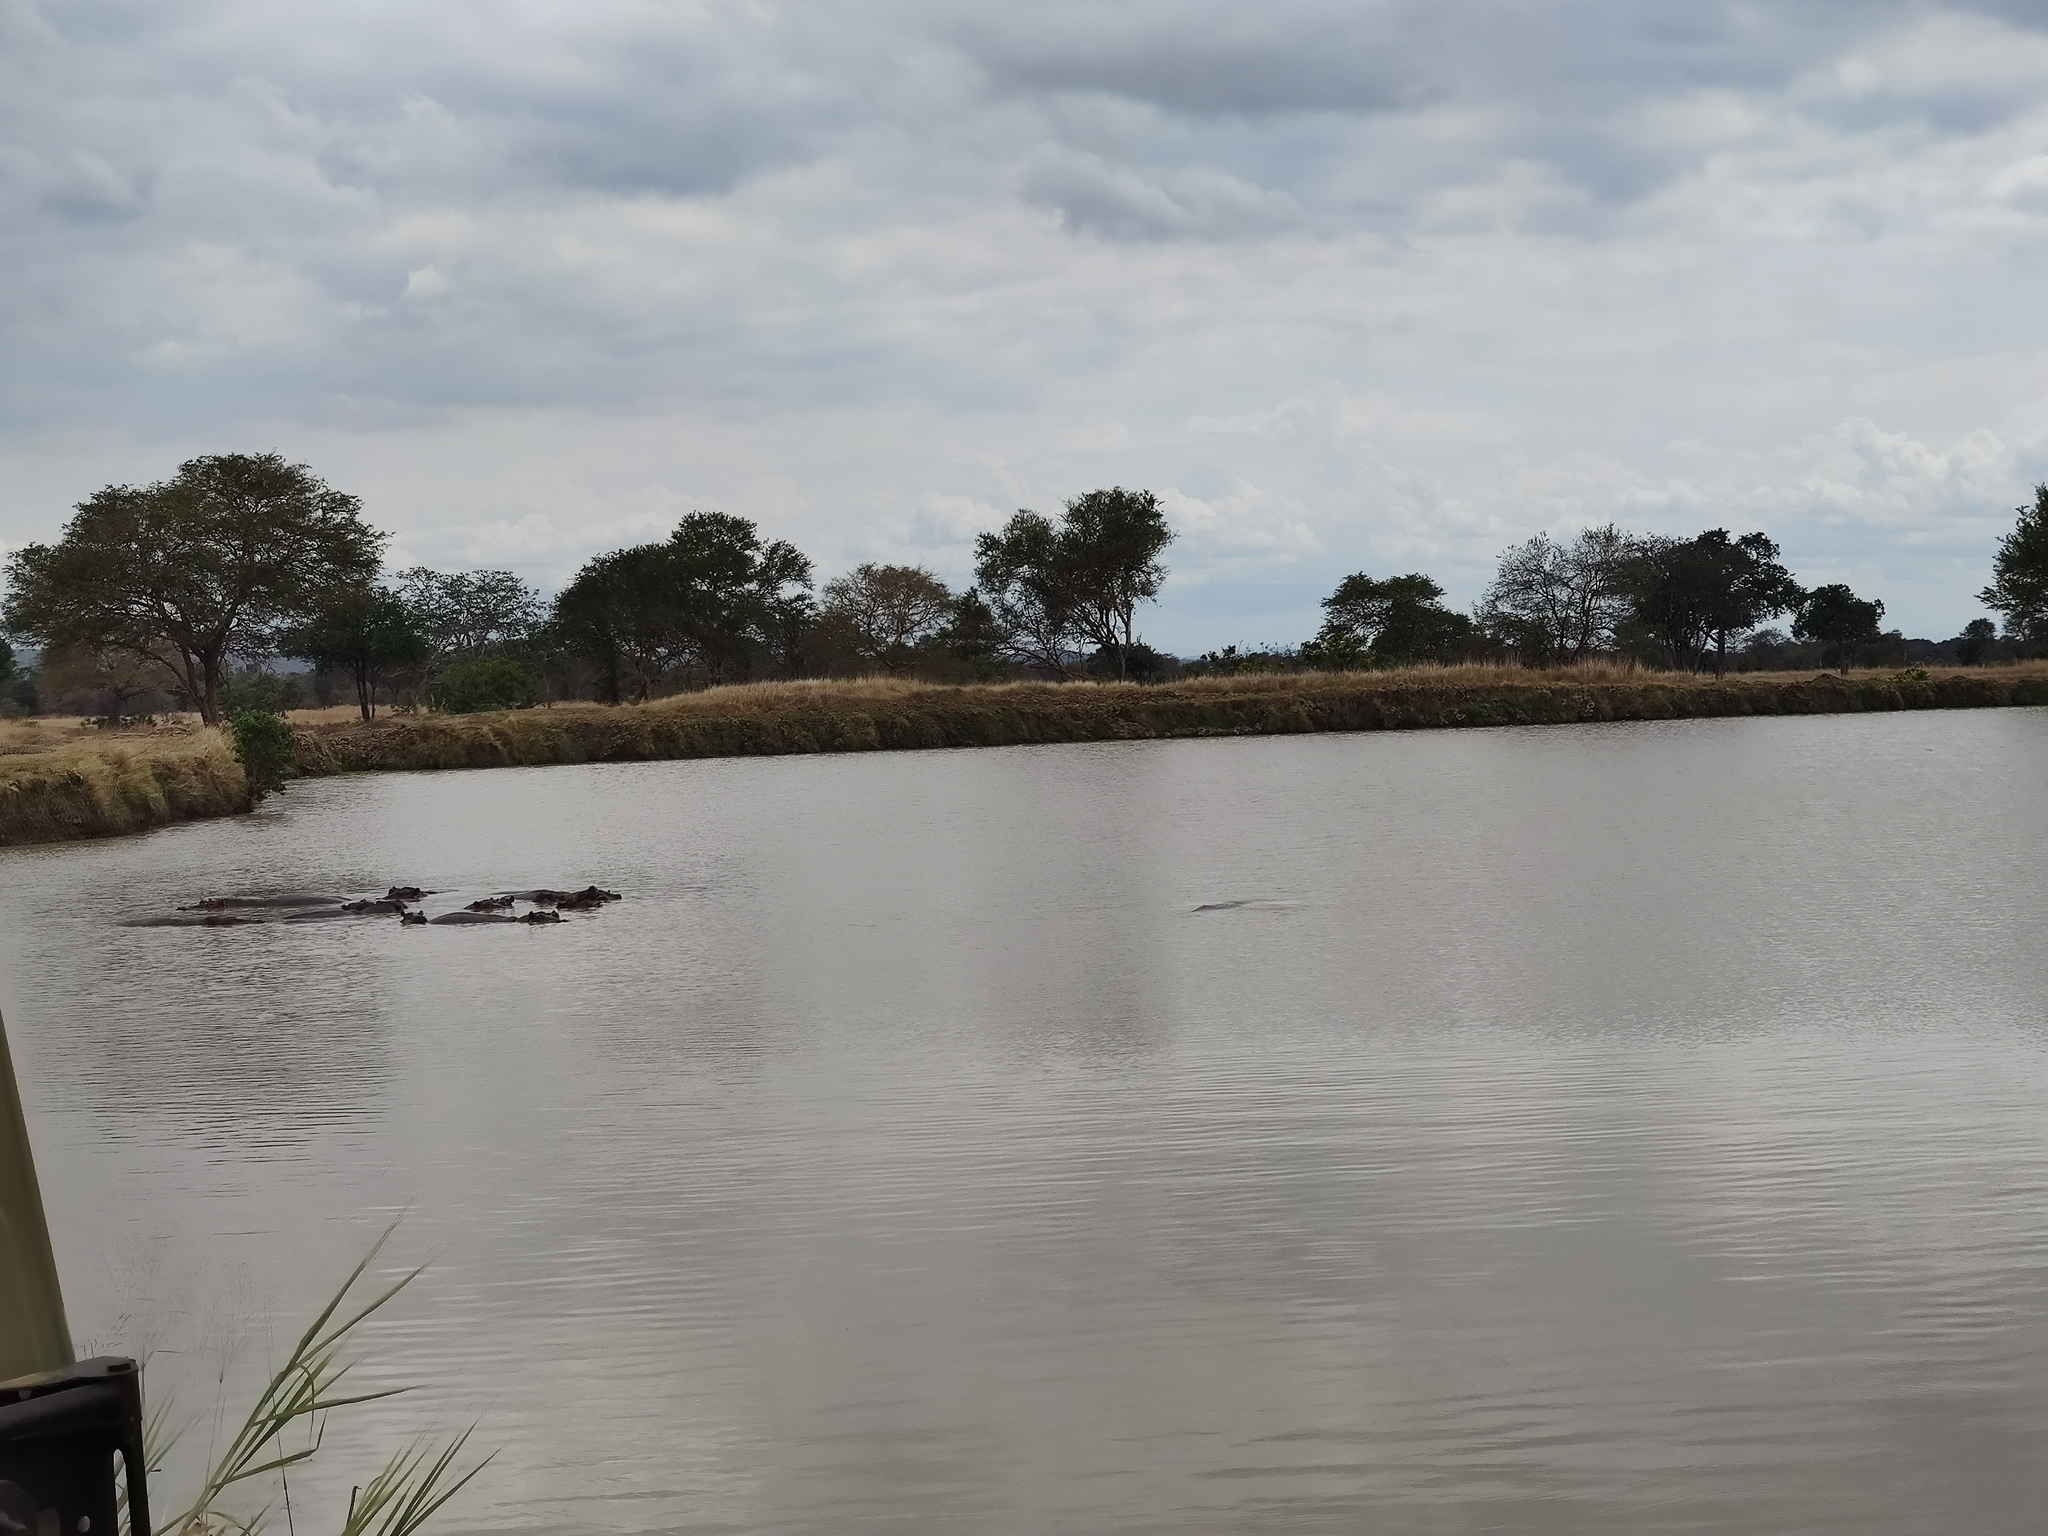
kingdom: Animalia
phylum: Chordata
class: Mammalia
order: Artiodactyla
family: Hippopotamidae
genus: Hippopotamus
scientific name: Hippopotamus amphibius
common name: Common hippopotamus
